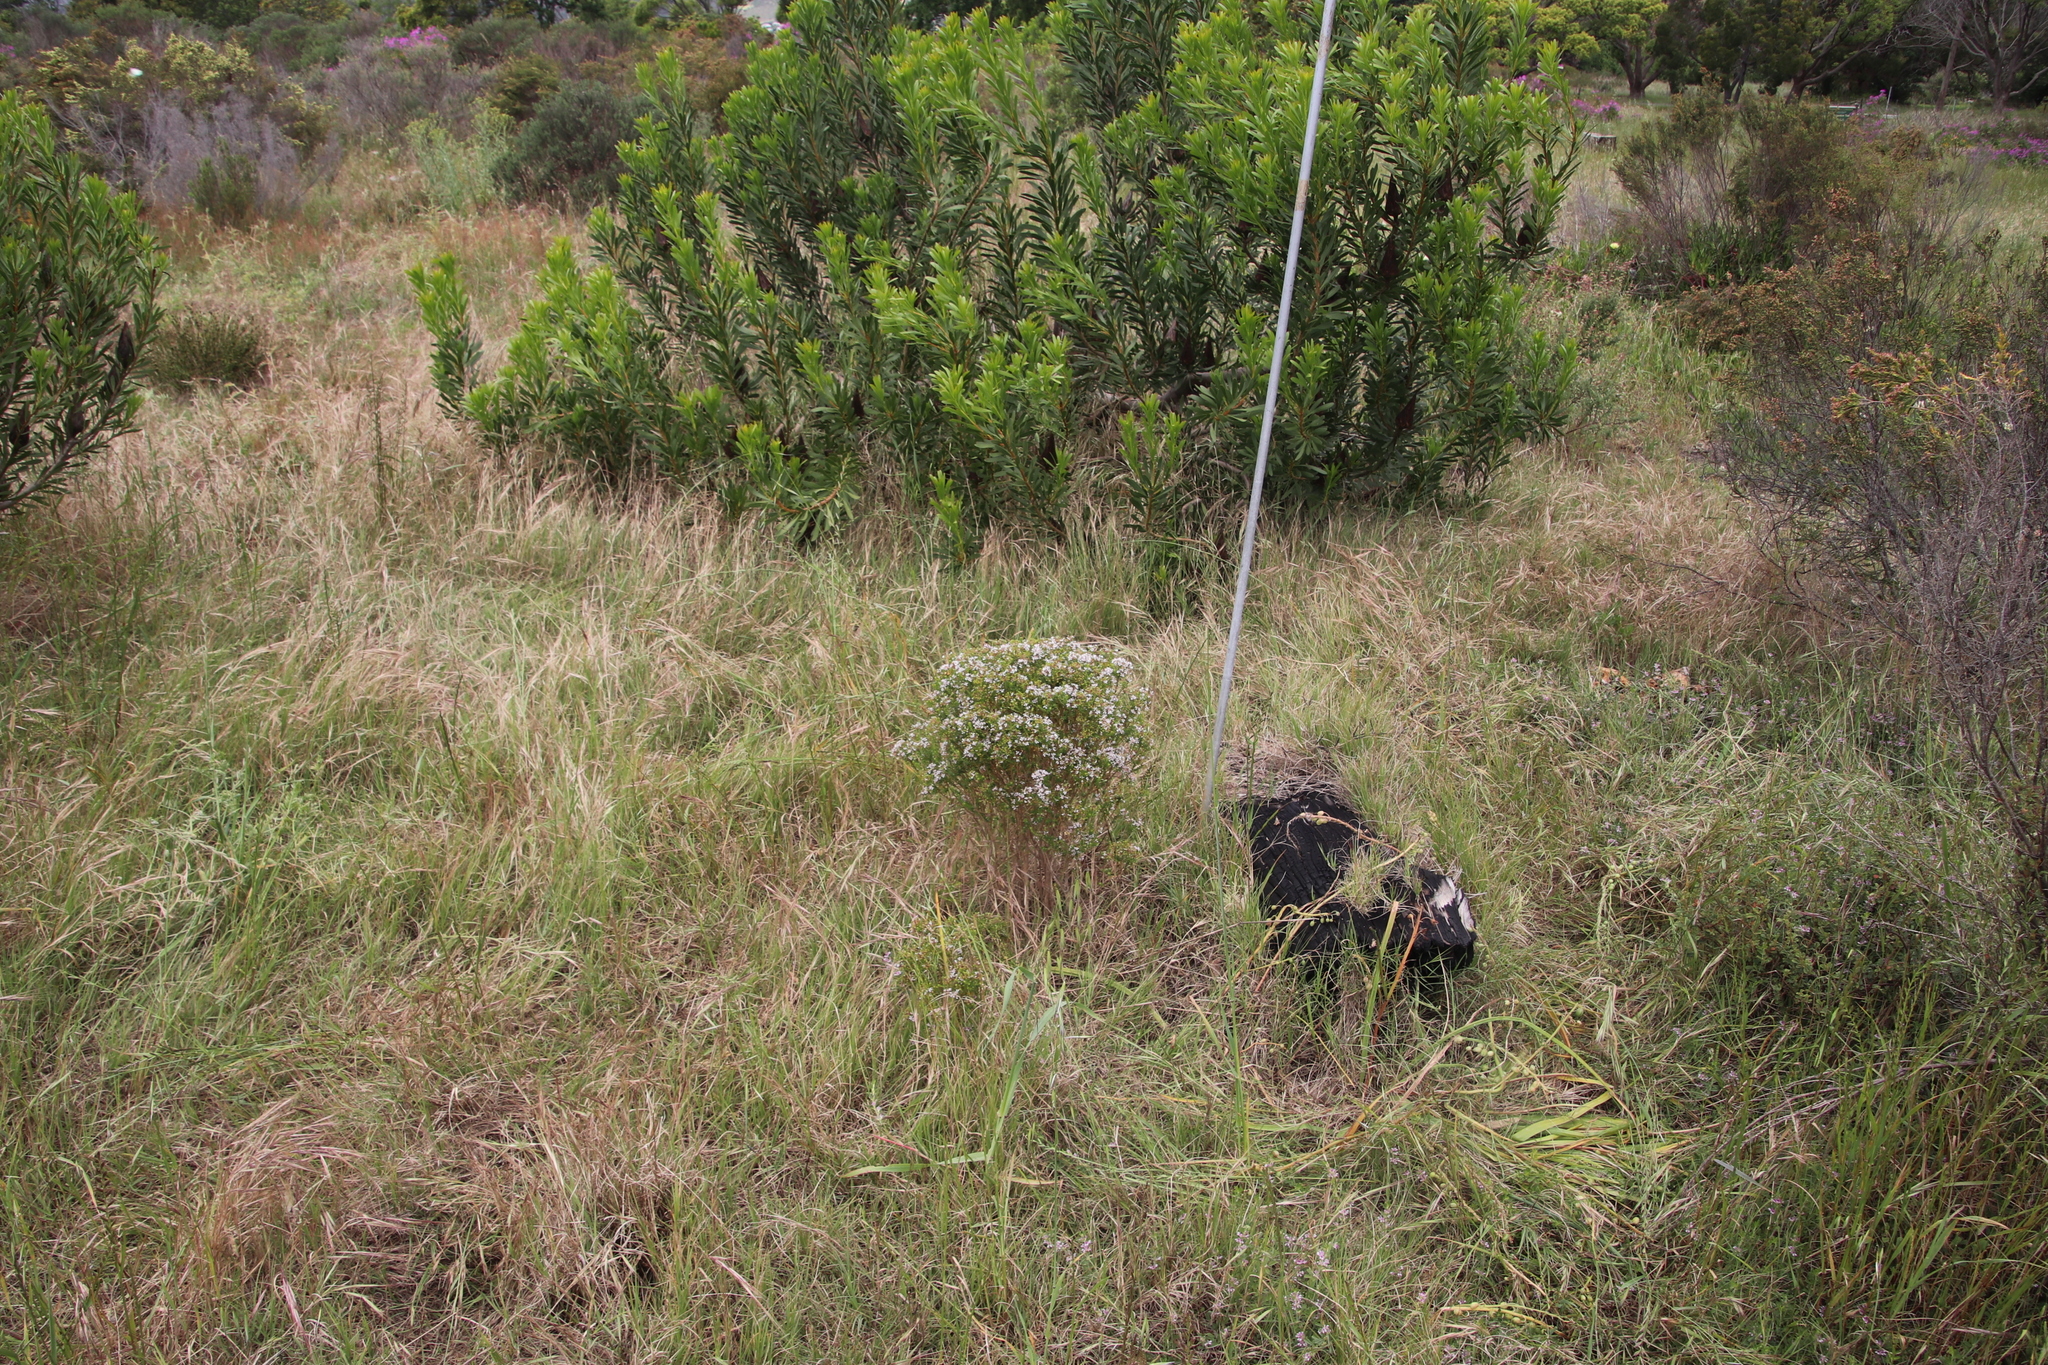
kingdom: Plantae
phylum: Tracheophyta
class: Magnoliopsida
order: Sapindales
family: Rutaceae
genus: Agathosma
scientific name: Agathosma glabrata
